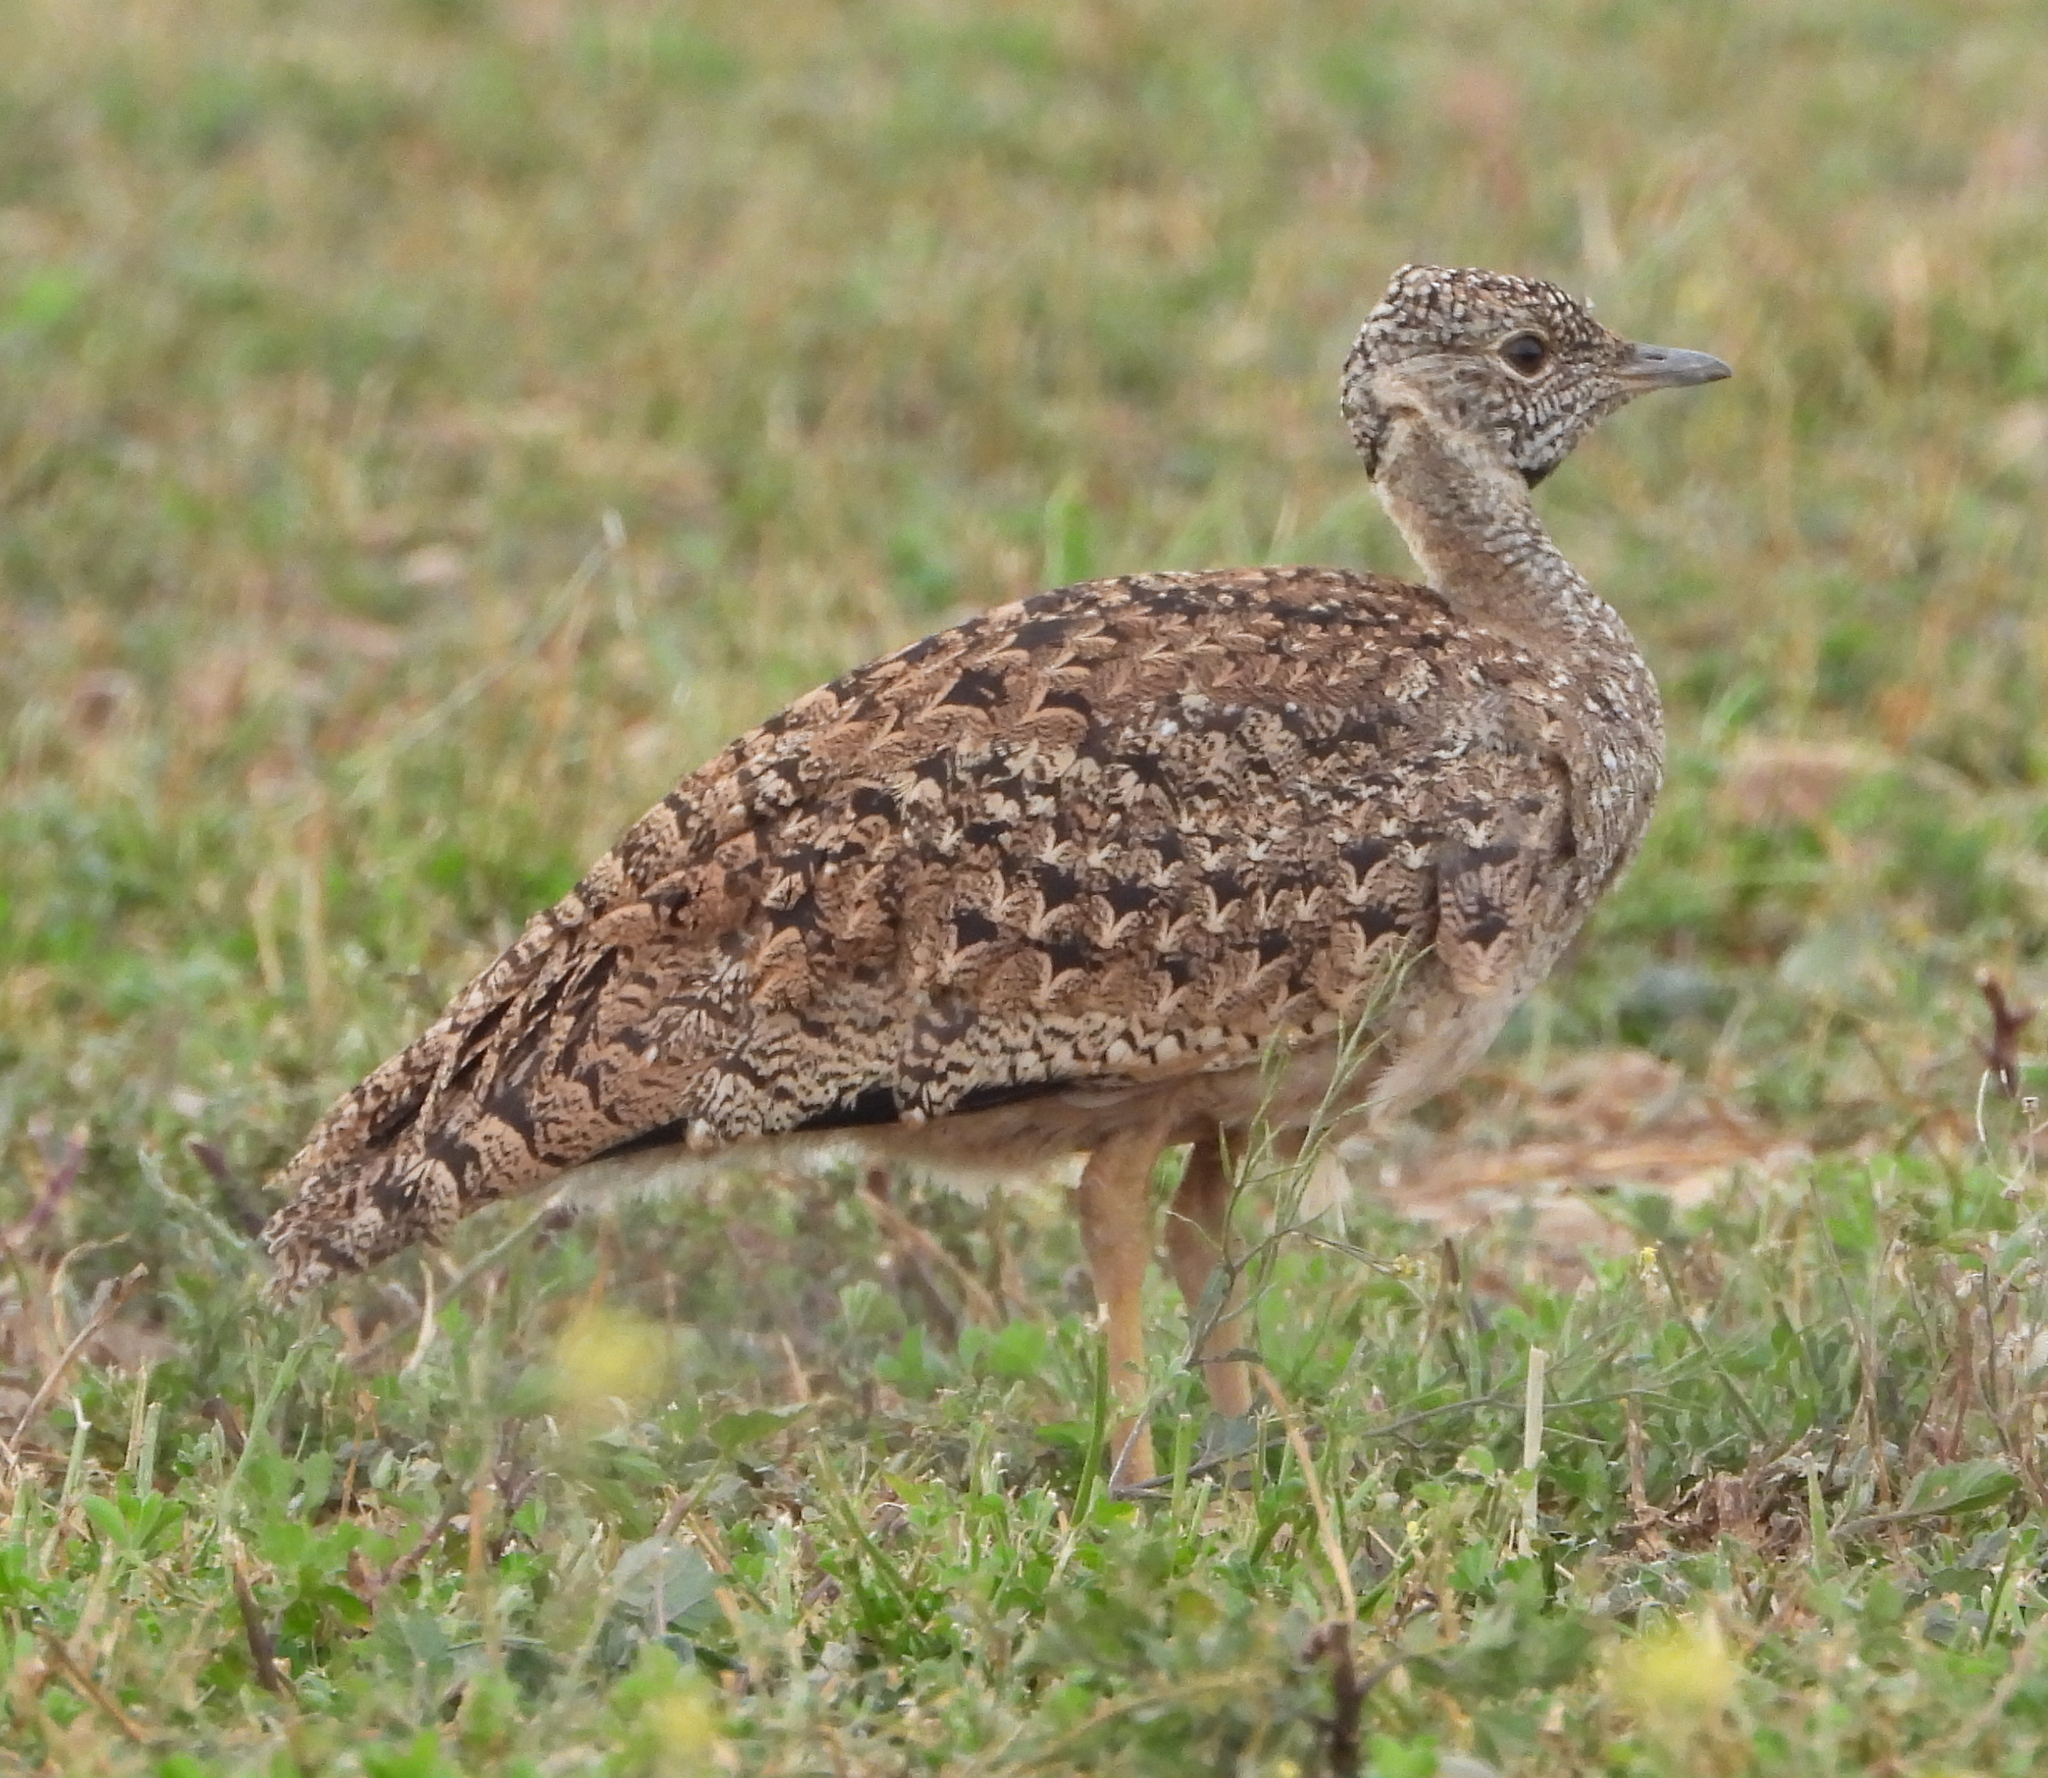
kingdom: Animalia
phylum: Chordata
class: Aves
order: Otidiformes
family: Otididae
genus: Eupodotis
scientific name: Eupodotis vigorsii
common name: Karoo korhaan
